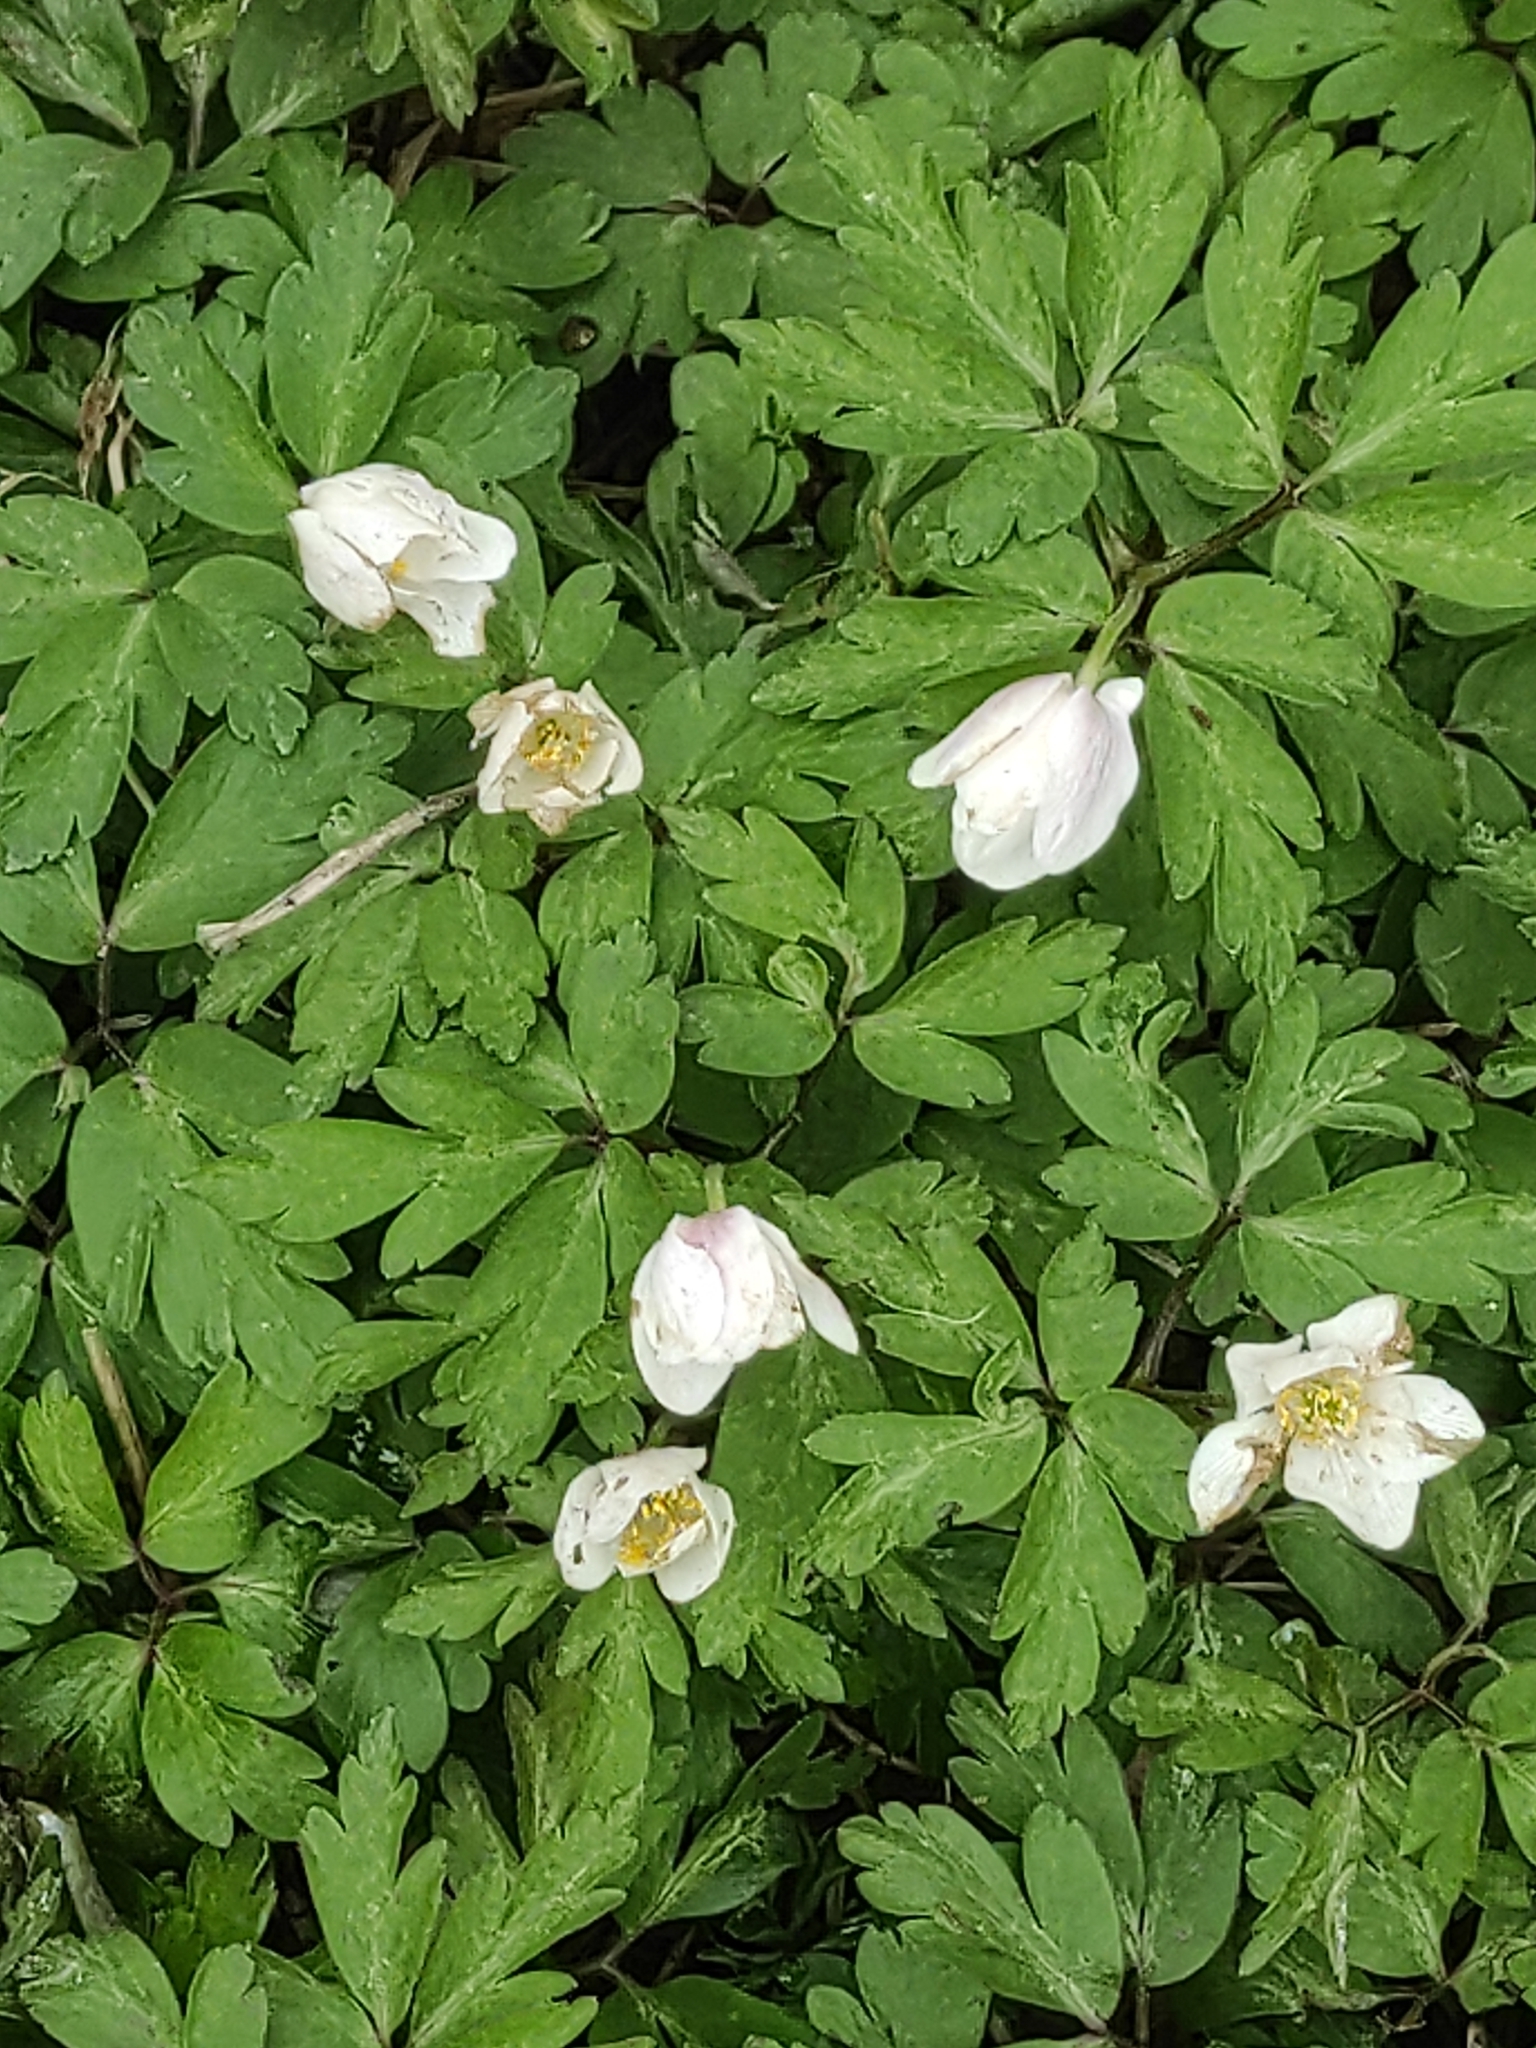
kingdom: Plantae
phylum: Tracheophyta
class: Magnoliopsida
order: Ranunculales
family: Ranunculaceae
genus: Anemone
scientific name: Anemone nemorosa
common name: Wood anemone
